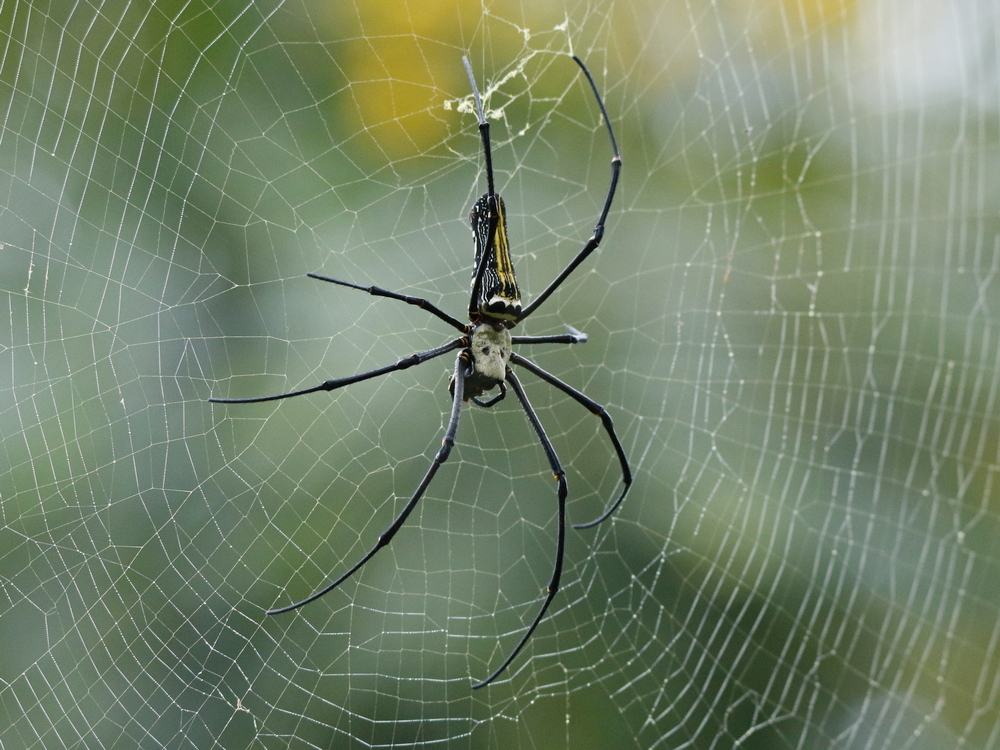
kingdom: Animalia
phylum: Arthropoda
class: Arachnida
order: Araneae
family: Araneidae
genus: Nephila
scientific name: Nephila pilipes
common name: Giant golden orb weaver
